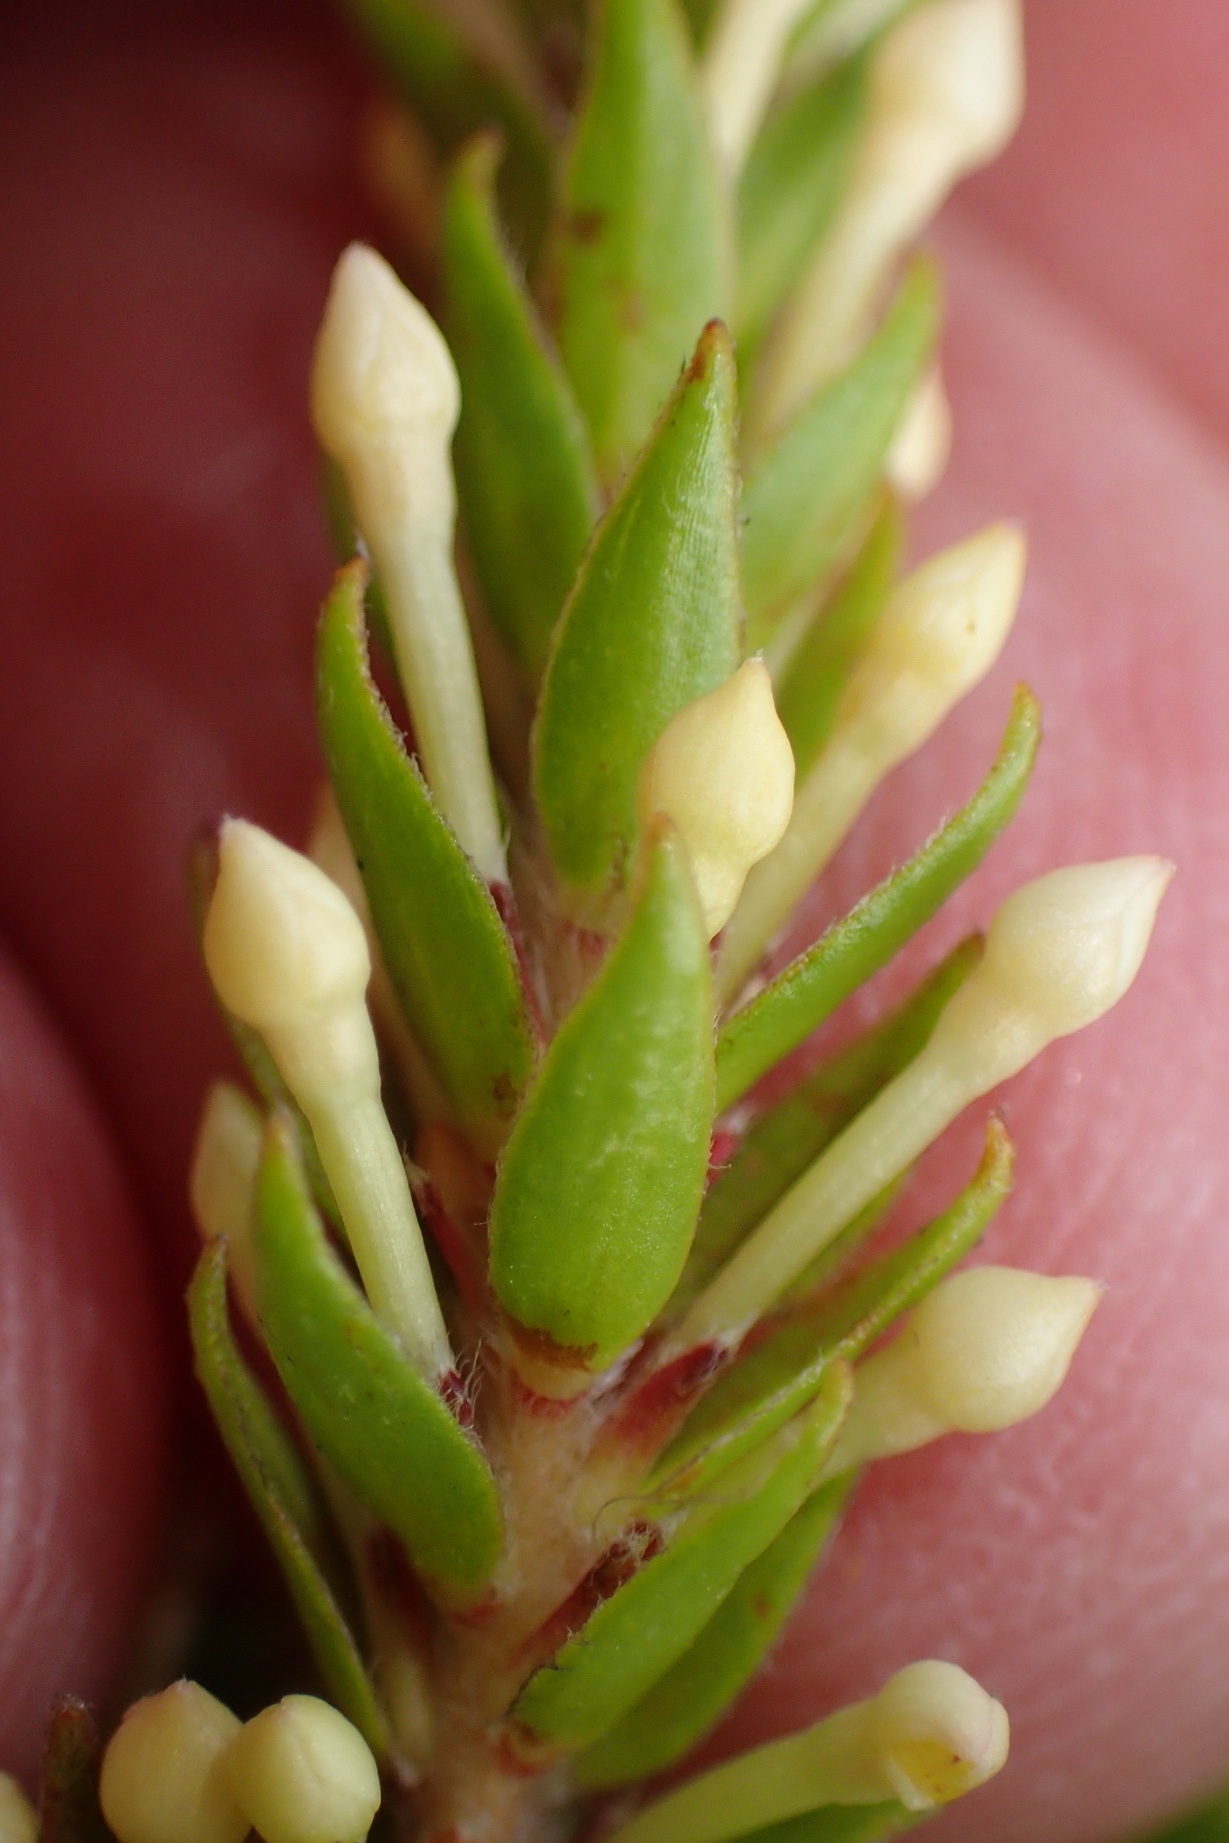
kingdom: Plantae
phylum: Tracheophyta
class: Magnoliopsida
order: Malvales
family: Thymelaeaceae
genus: Struthiola
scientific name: Struthiola dodecandra
